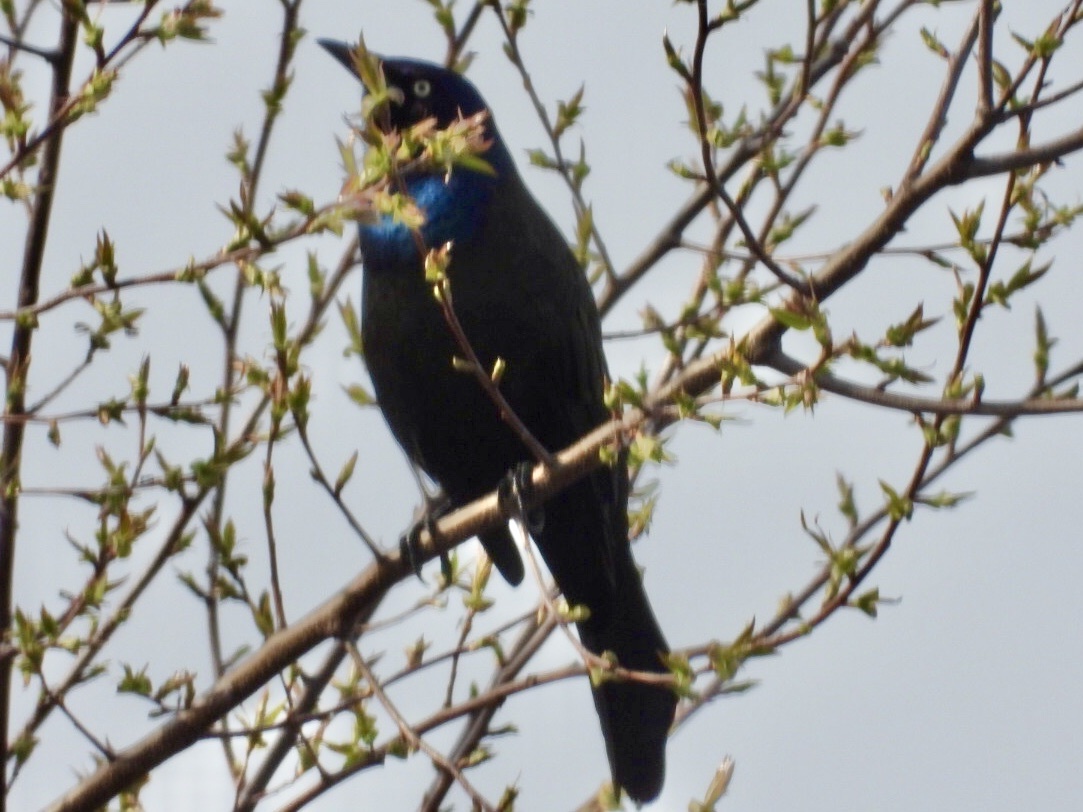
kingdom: Animalia
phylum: Chordata
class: Aves
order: Passeriformes
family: Icteridae
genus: Quiscalus
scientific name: Quiscalus quiscula
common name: Common grackle
